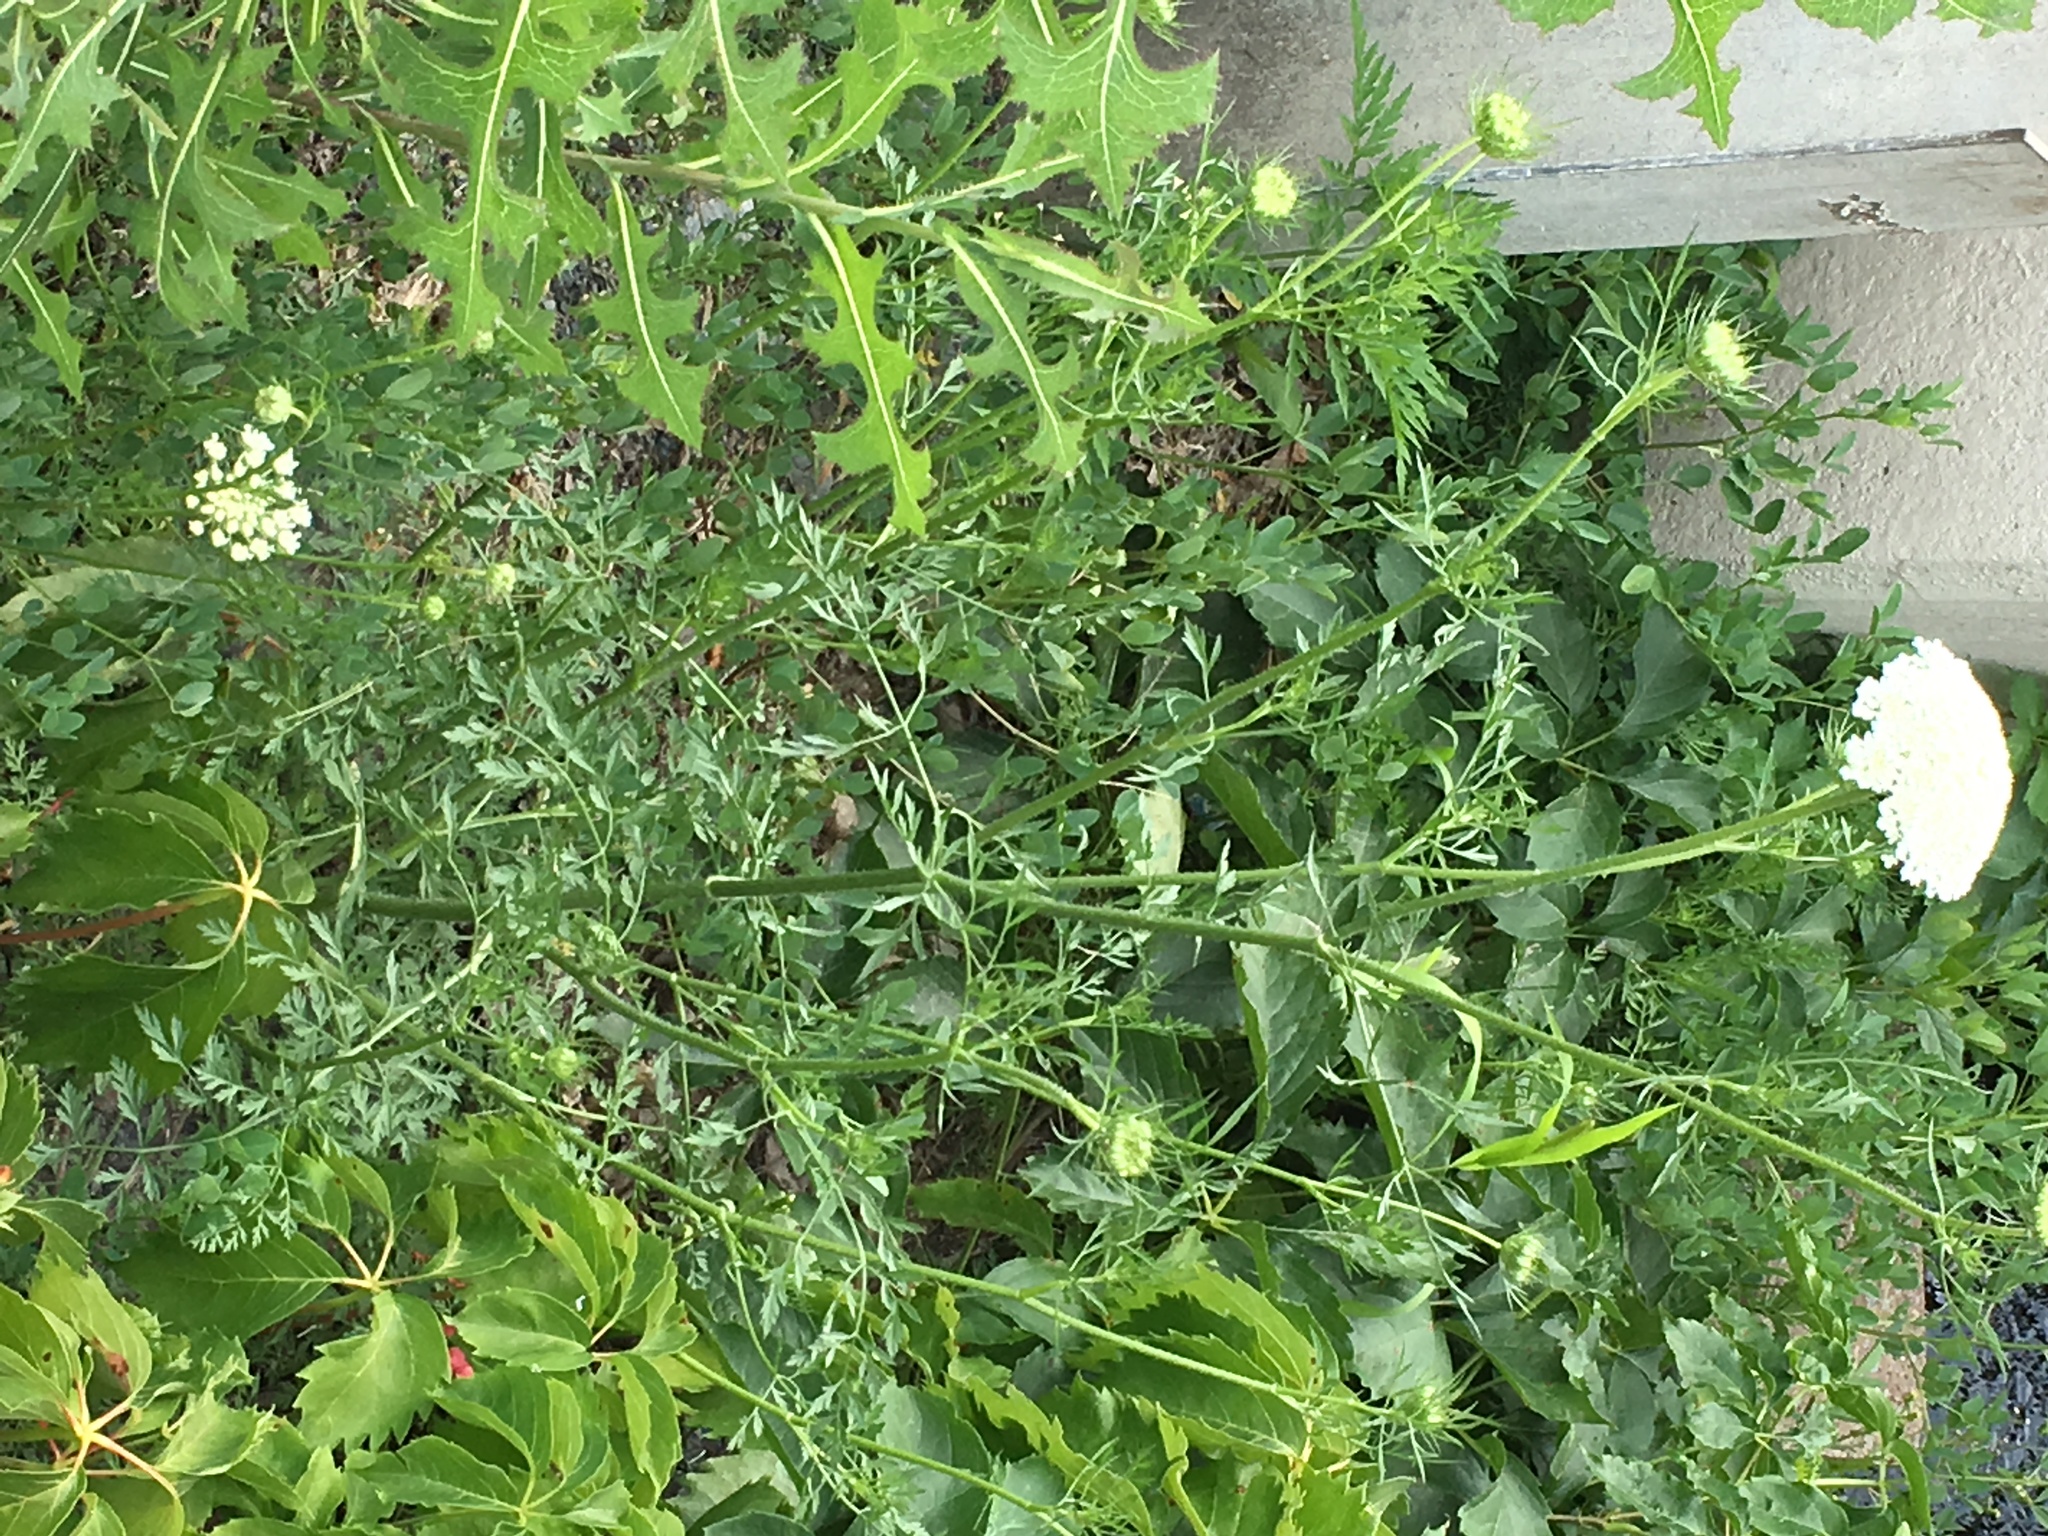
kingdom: Plantae
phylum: Tracheophyta
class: Magnoliopsida
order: Apiales
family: Apiaceae
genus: Daucus
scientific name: Daucus carota
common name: Wild carrot
